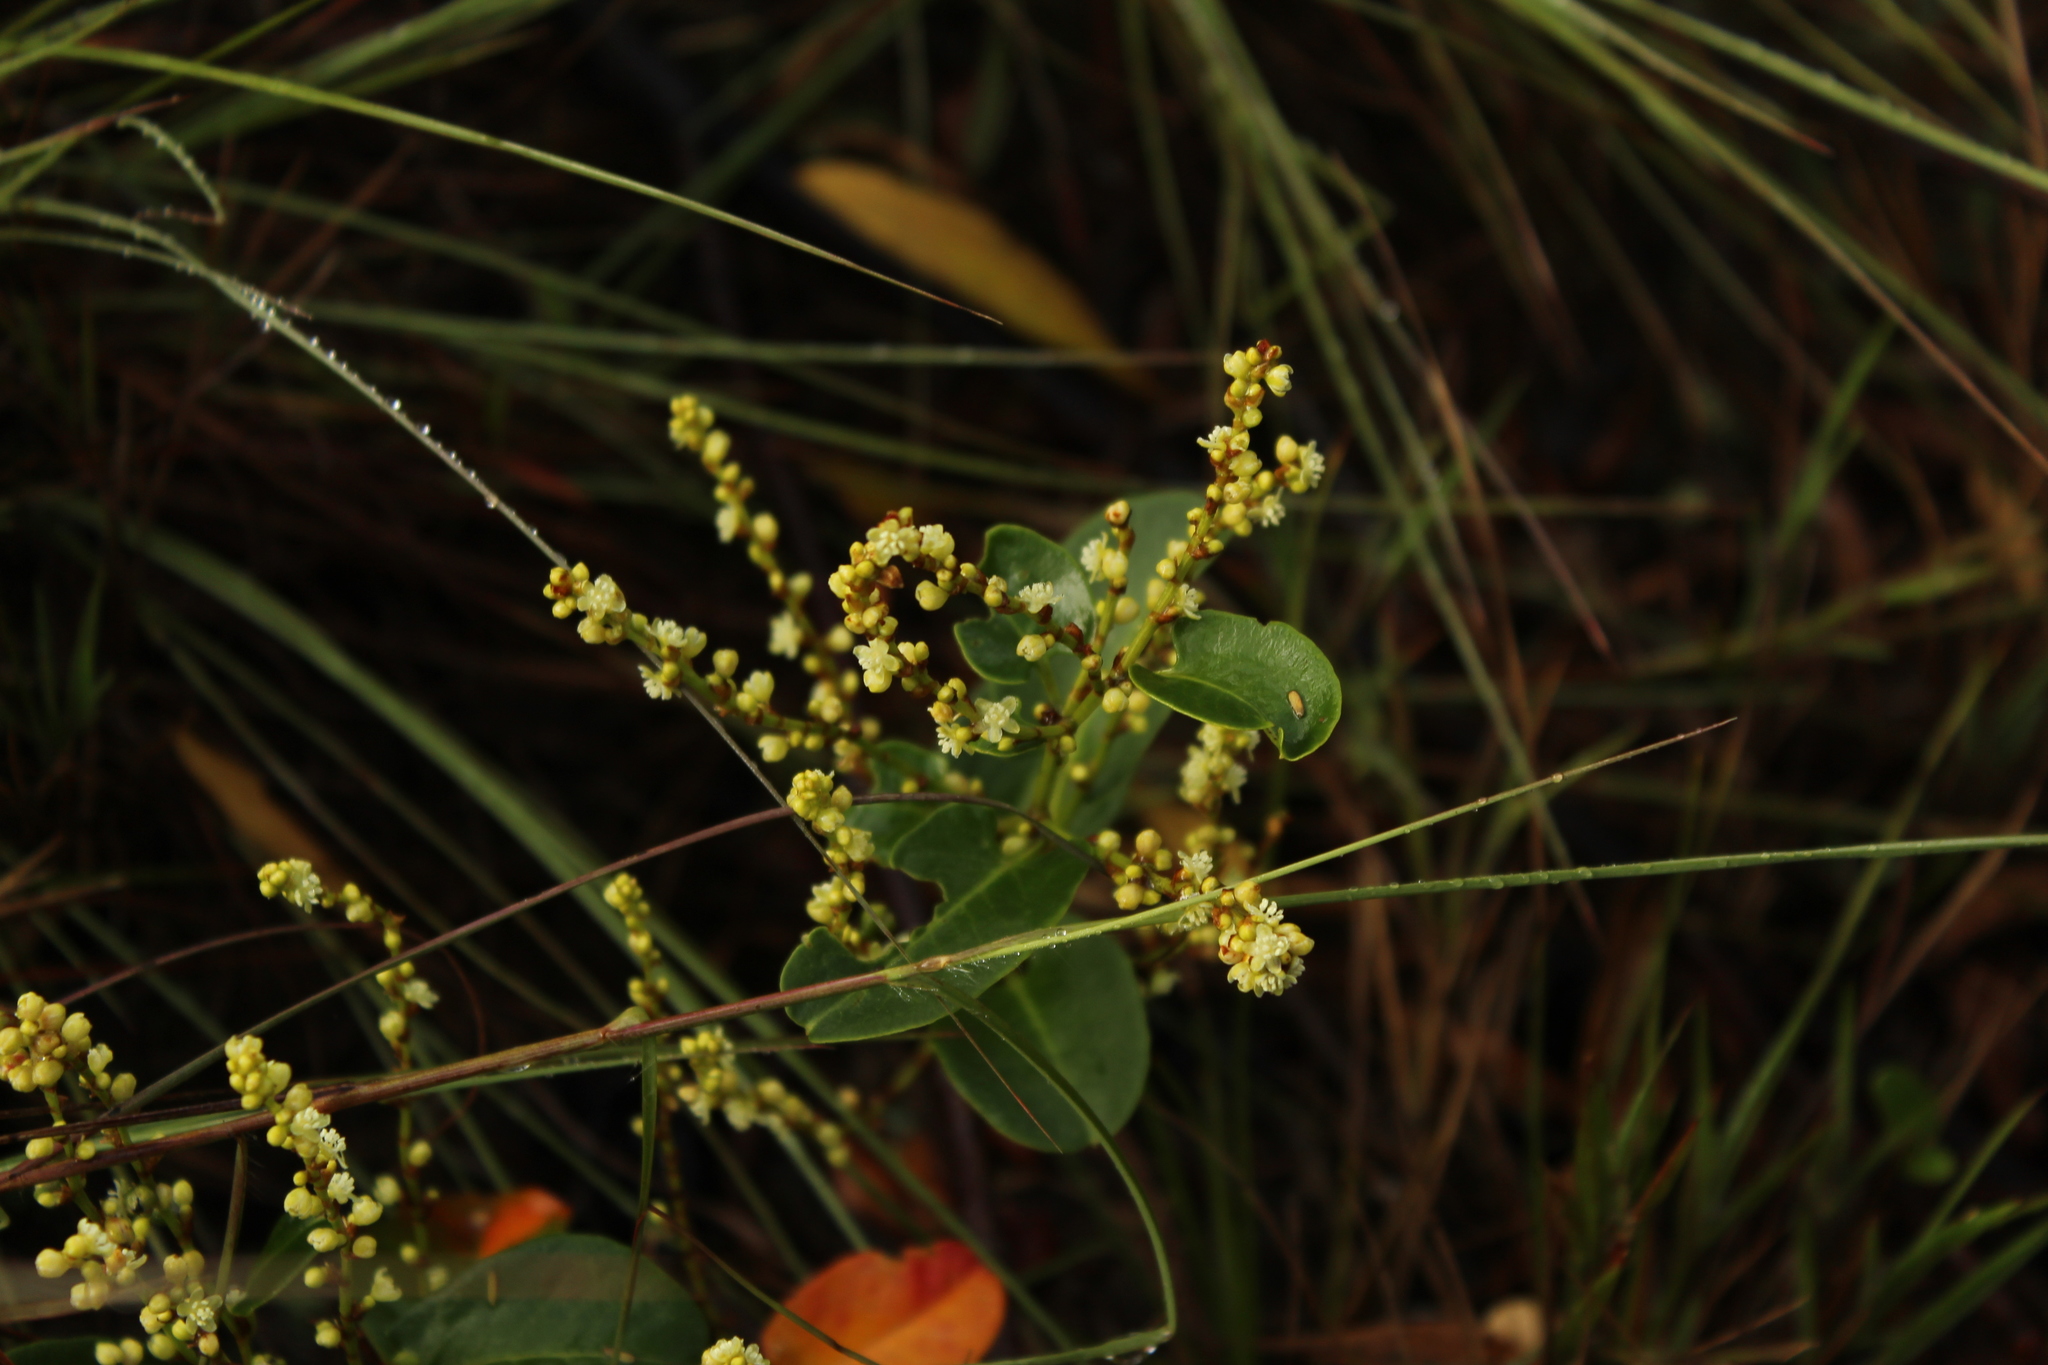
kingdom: Plantae
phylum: Tracheophyta
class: Magnoliopsida
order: Caryophyllales
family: Polygonaceae
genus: Muehlenbeckia
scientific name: Muehlenbeckia tamnifolia
